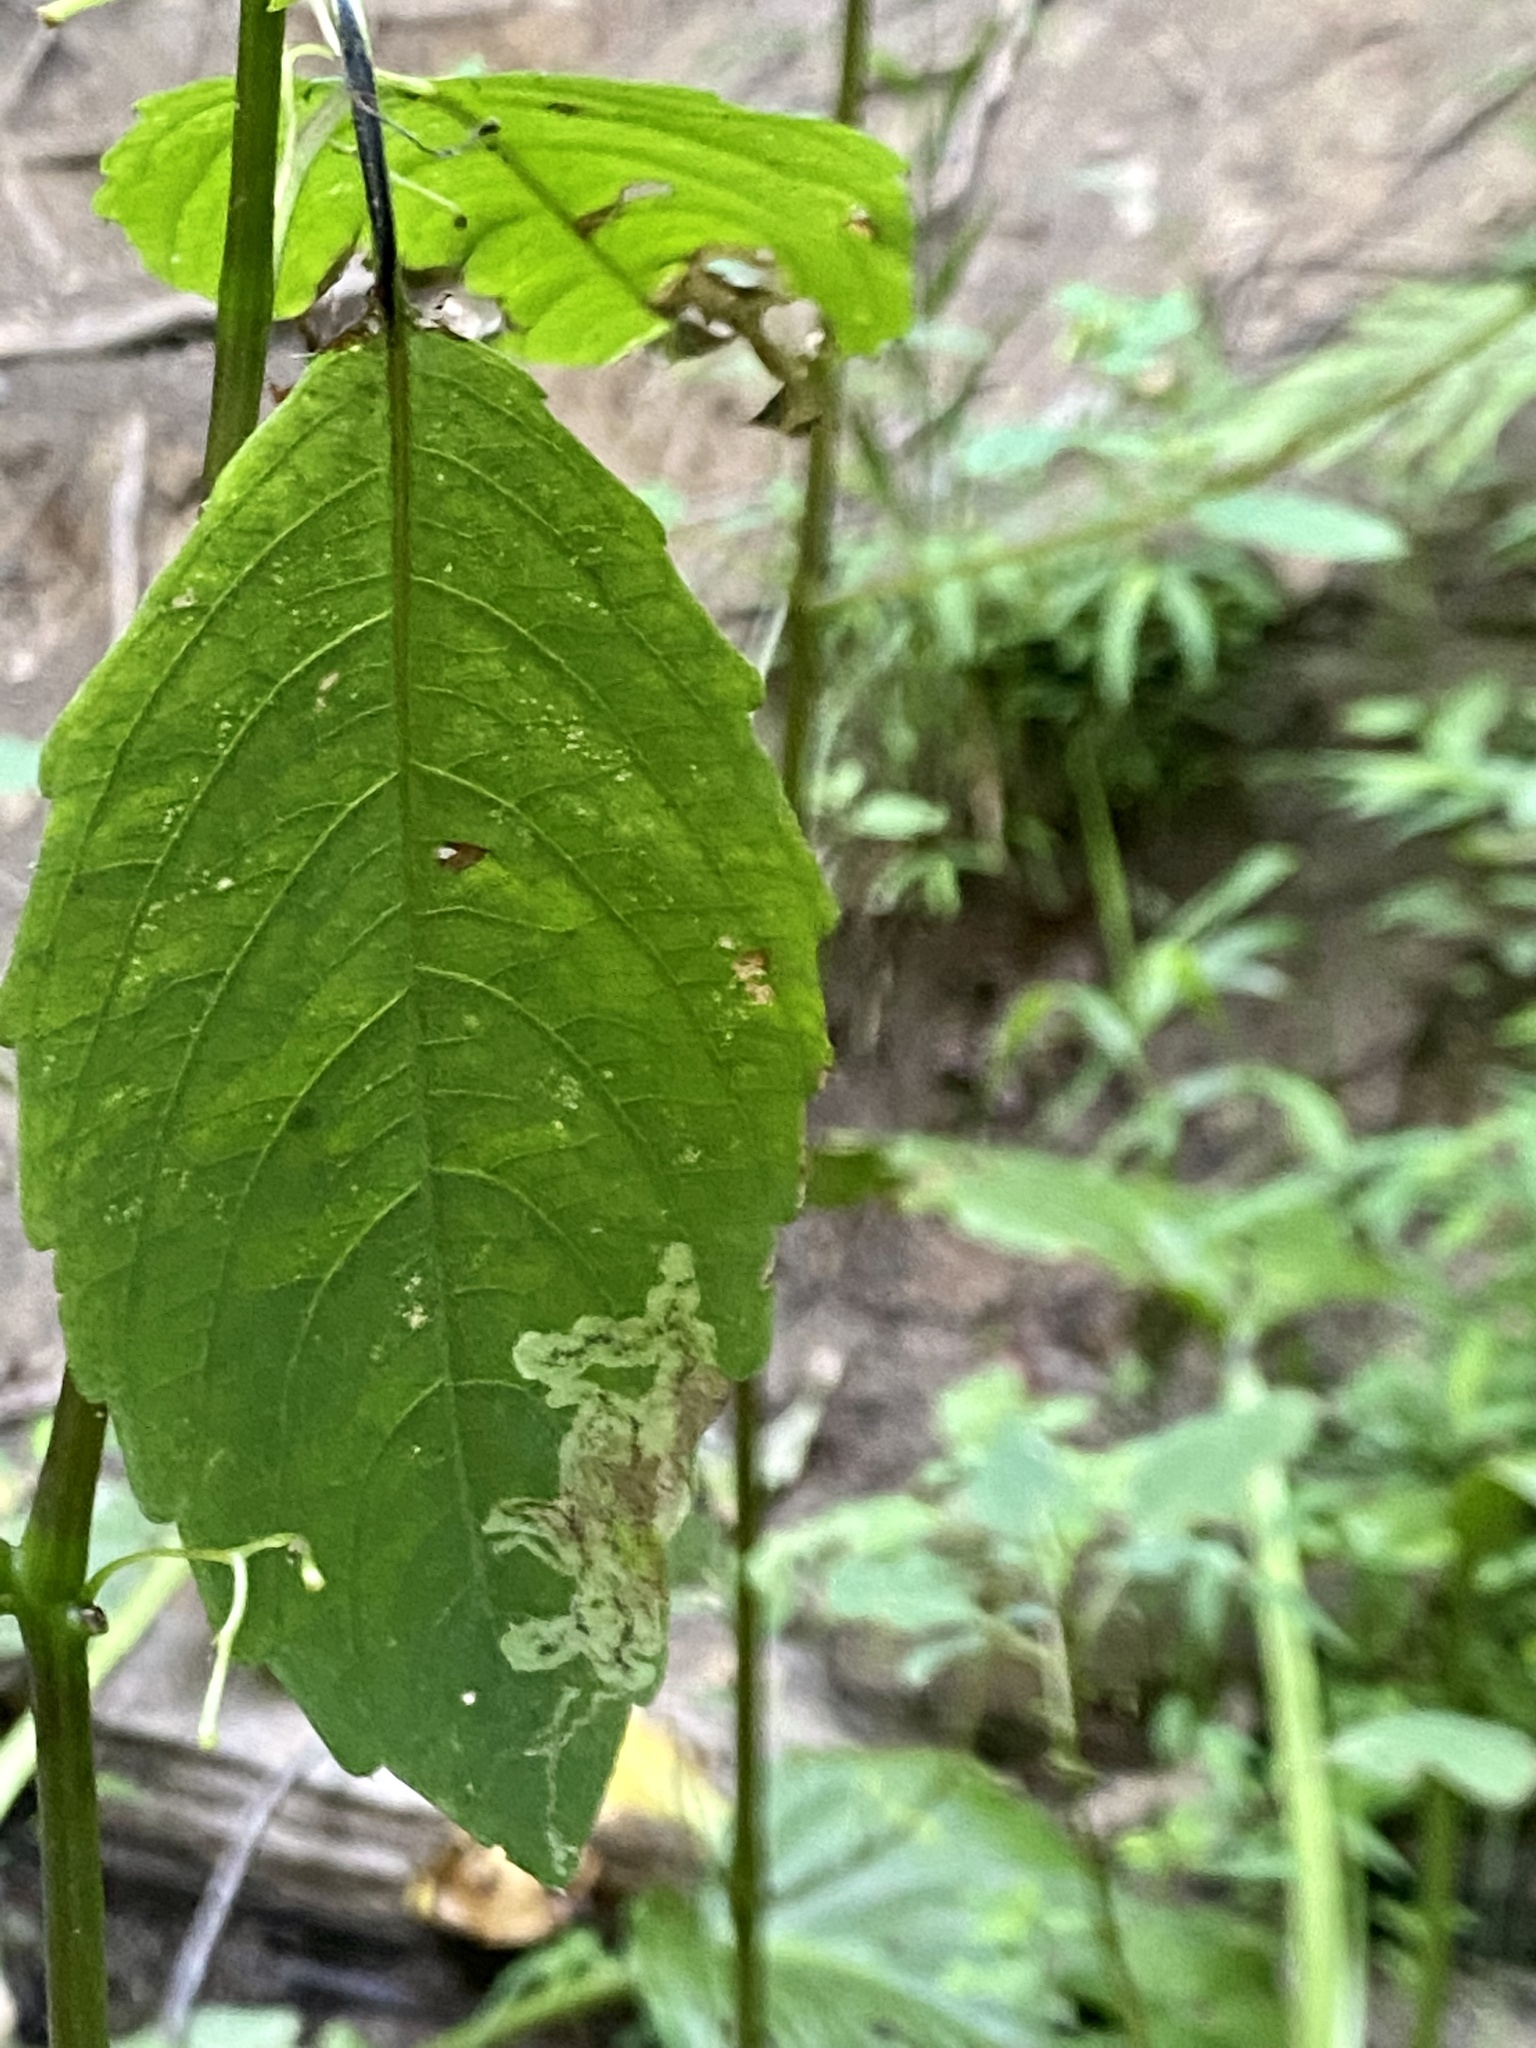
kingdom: Animalia
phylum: Arthropoda
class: Insecta
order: Diptera
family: Agromyzidae
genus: Phytoliriomyza
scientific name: Phytoliriomyza melampyga
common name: Jewelweed leaf-miner fly
